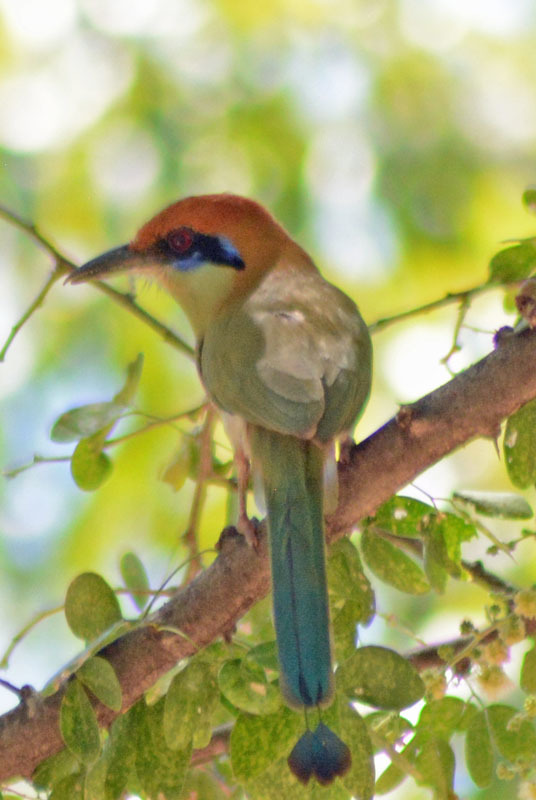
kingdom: Animalia
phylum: Chordata
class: Aves
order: Coraciiformes
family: Momotidae
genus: Momotus
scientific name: Momotus mexicanus
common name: Russet-crowned motmot
